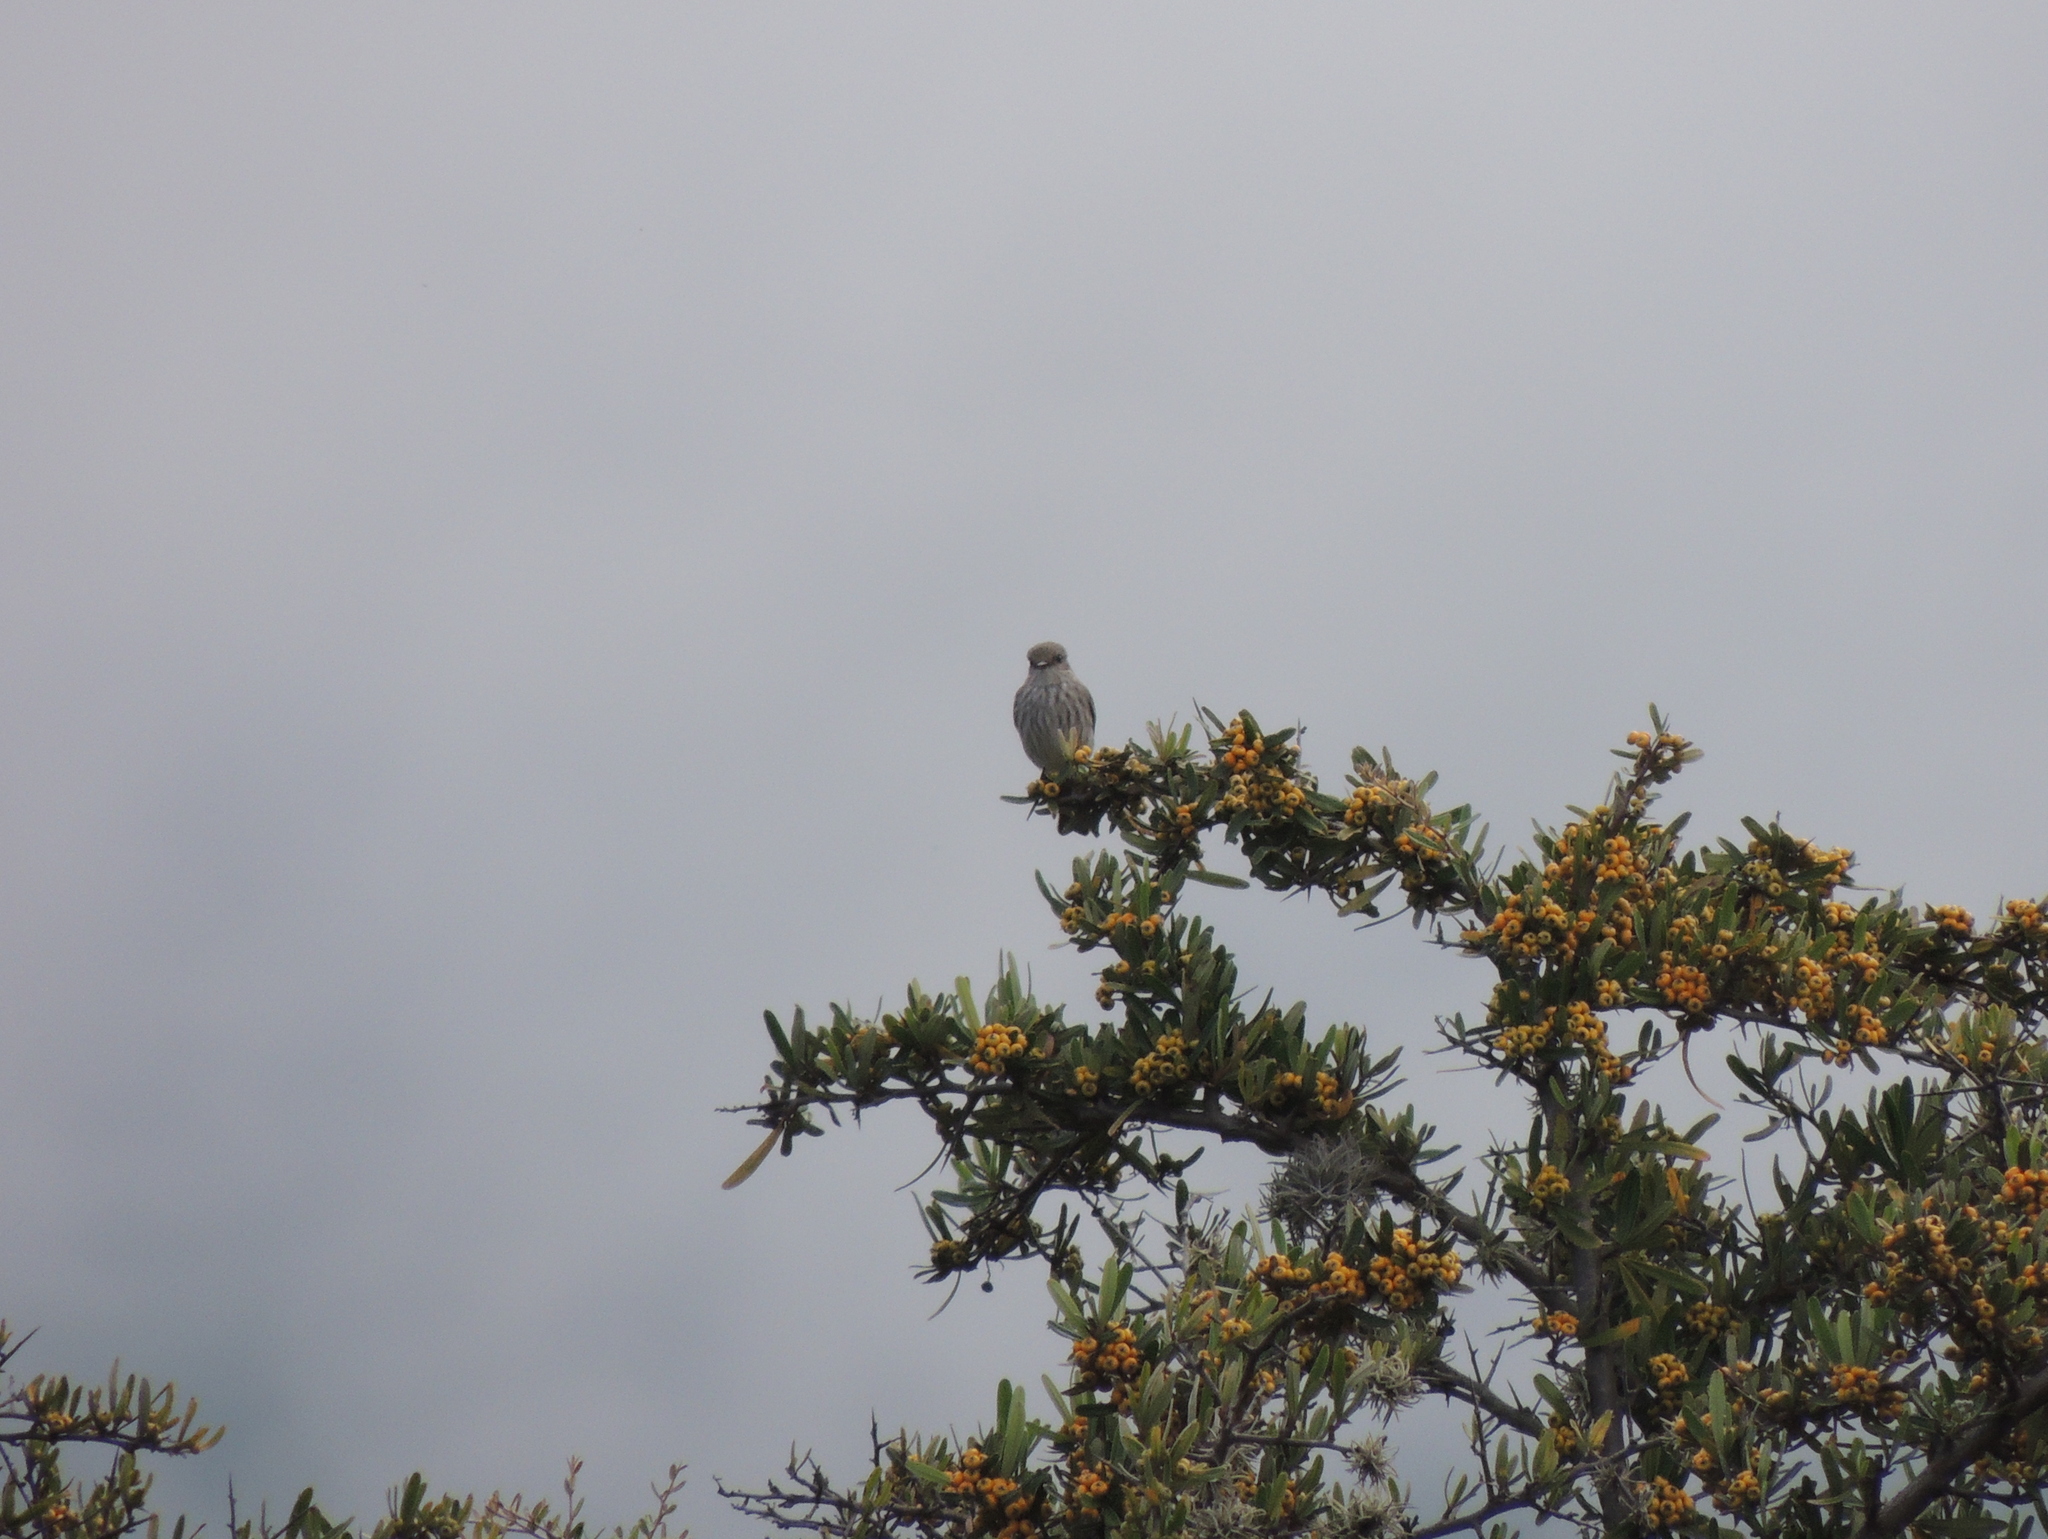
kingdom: Animalia
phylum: Chordata
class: Aves
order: Passeriformes
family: Tyrannidae
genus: Pyrocephalus
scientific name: Pyrocephalus rubinus
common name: Vermilion flycatcher
